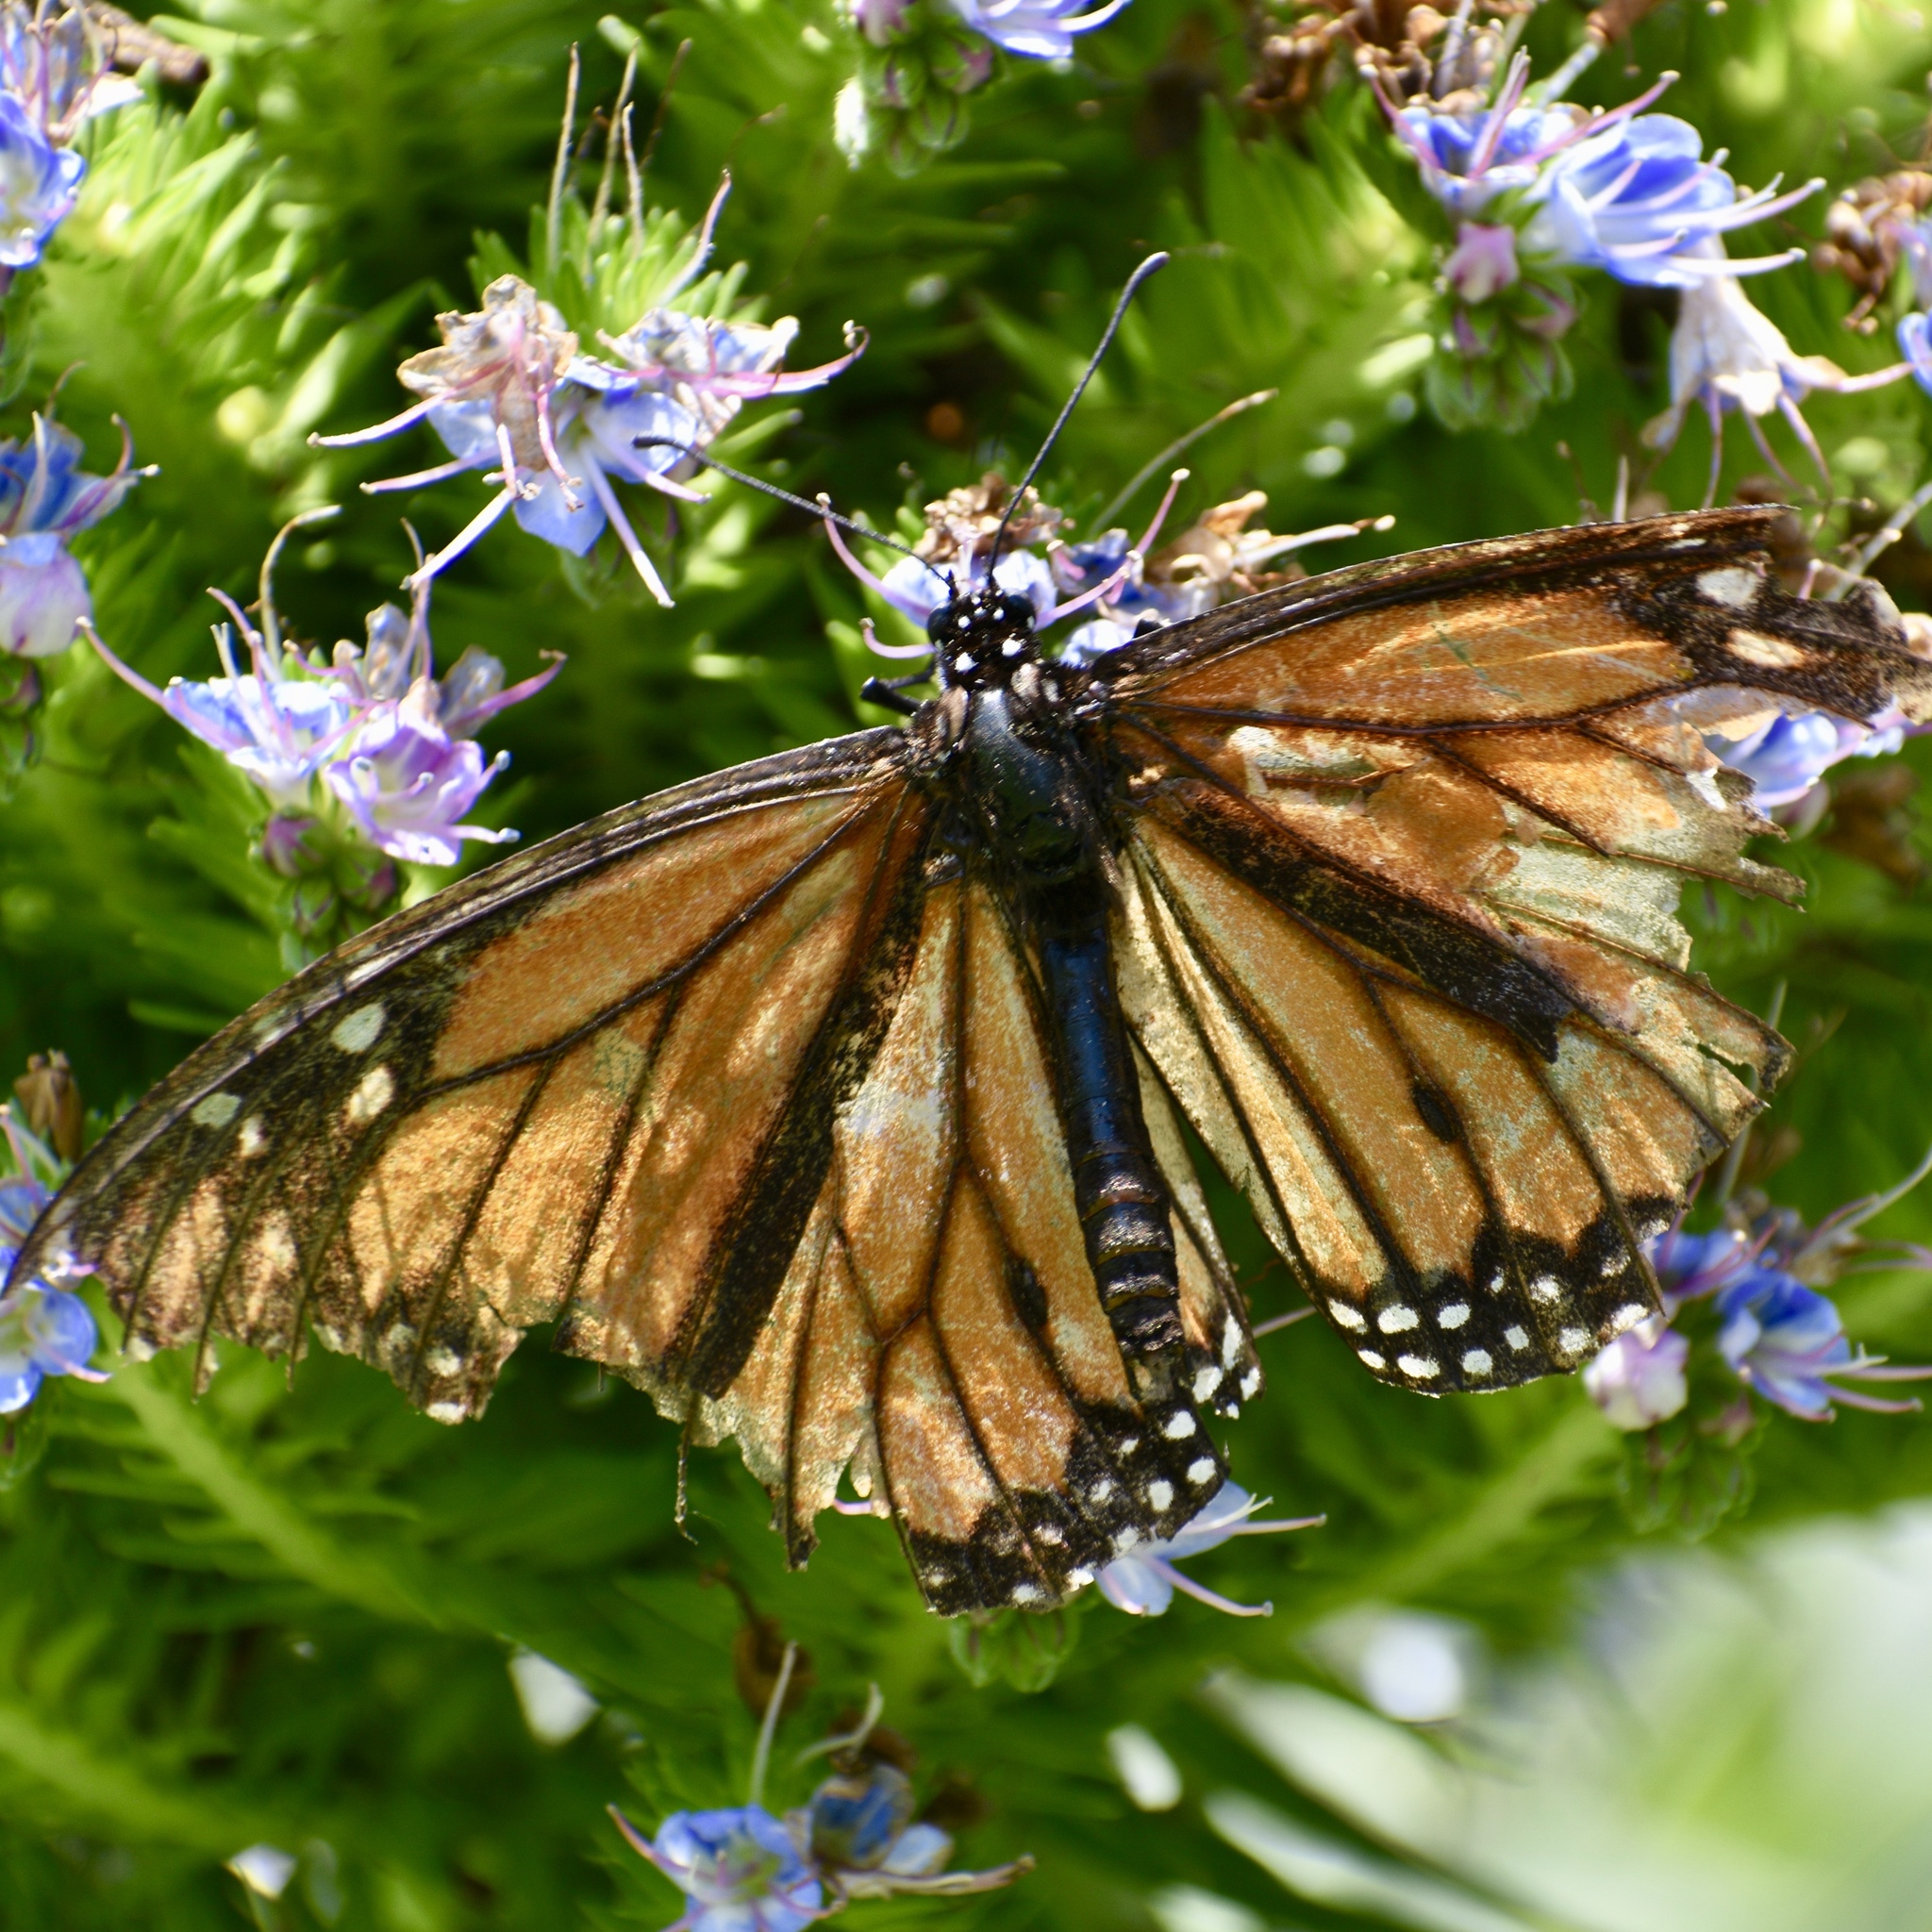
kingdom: Animalia
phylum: Arthropoda
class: Insecta
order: Lepidoptera
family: Nymphalidae
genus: Danaus
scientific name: Danaus plexippus
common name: Monarch
